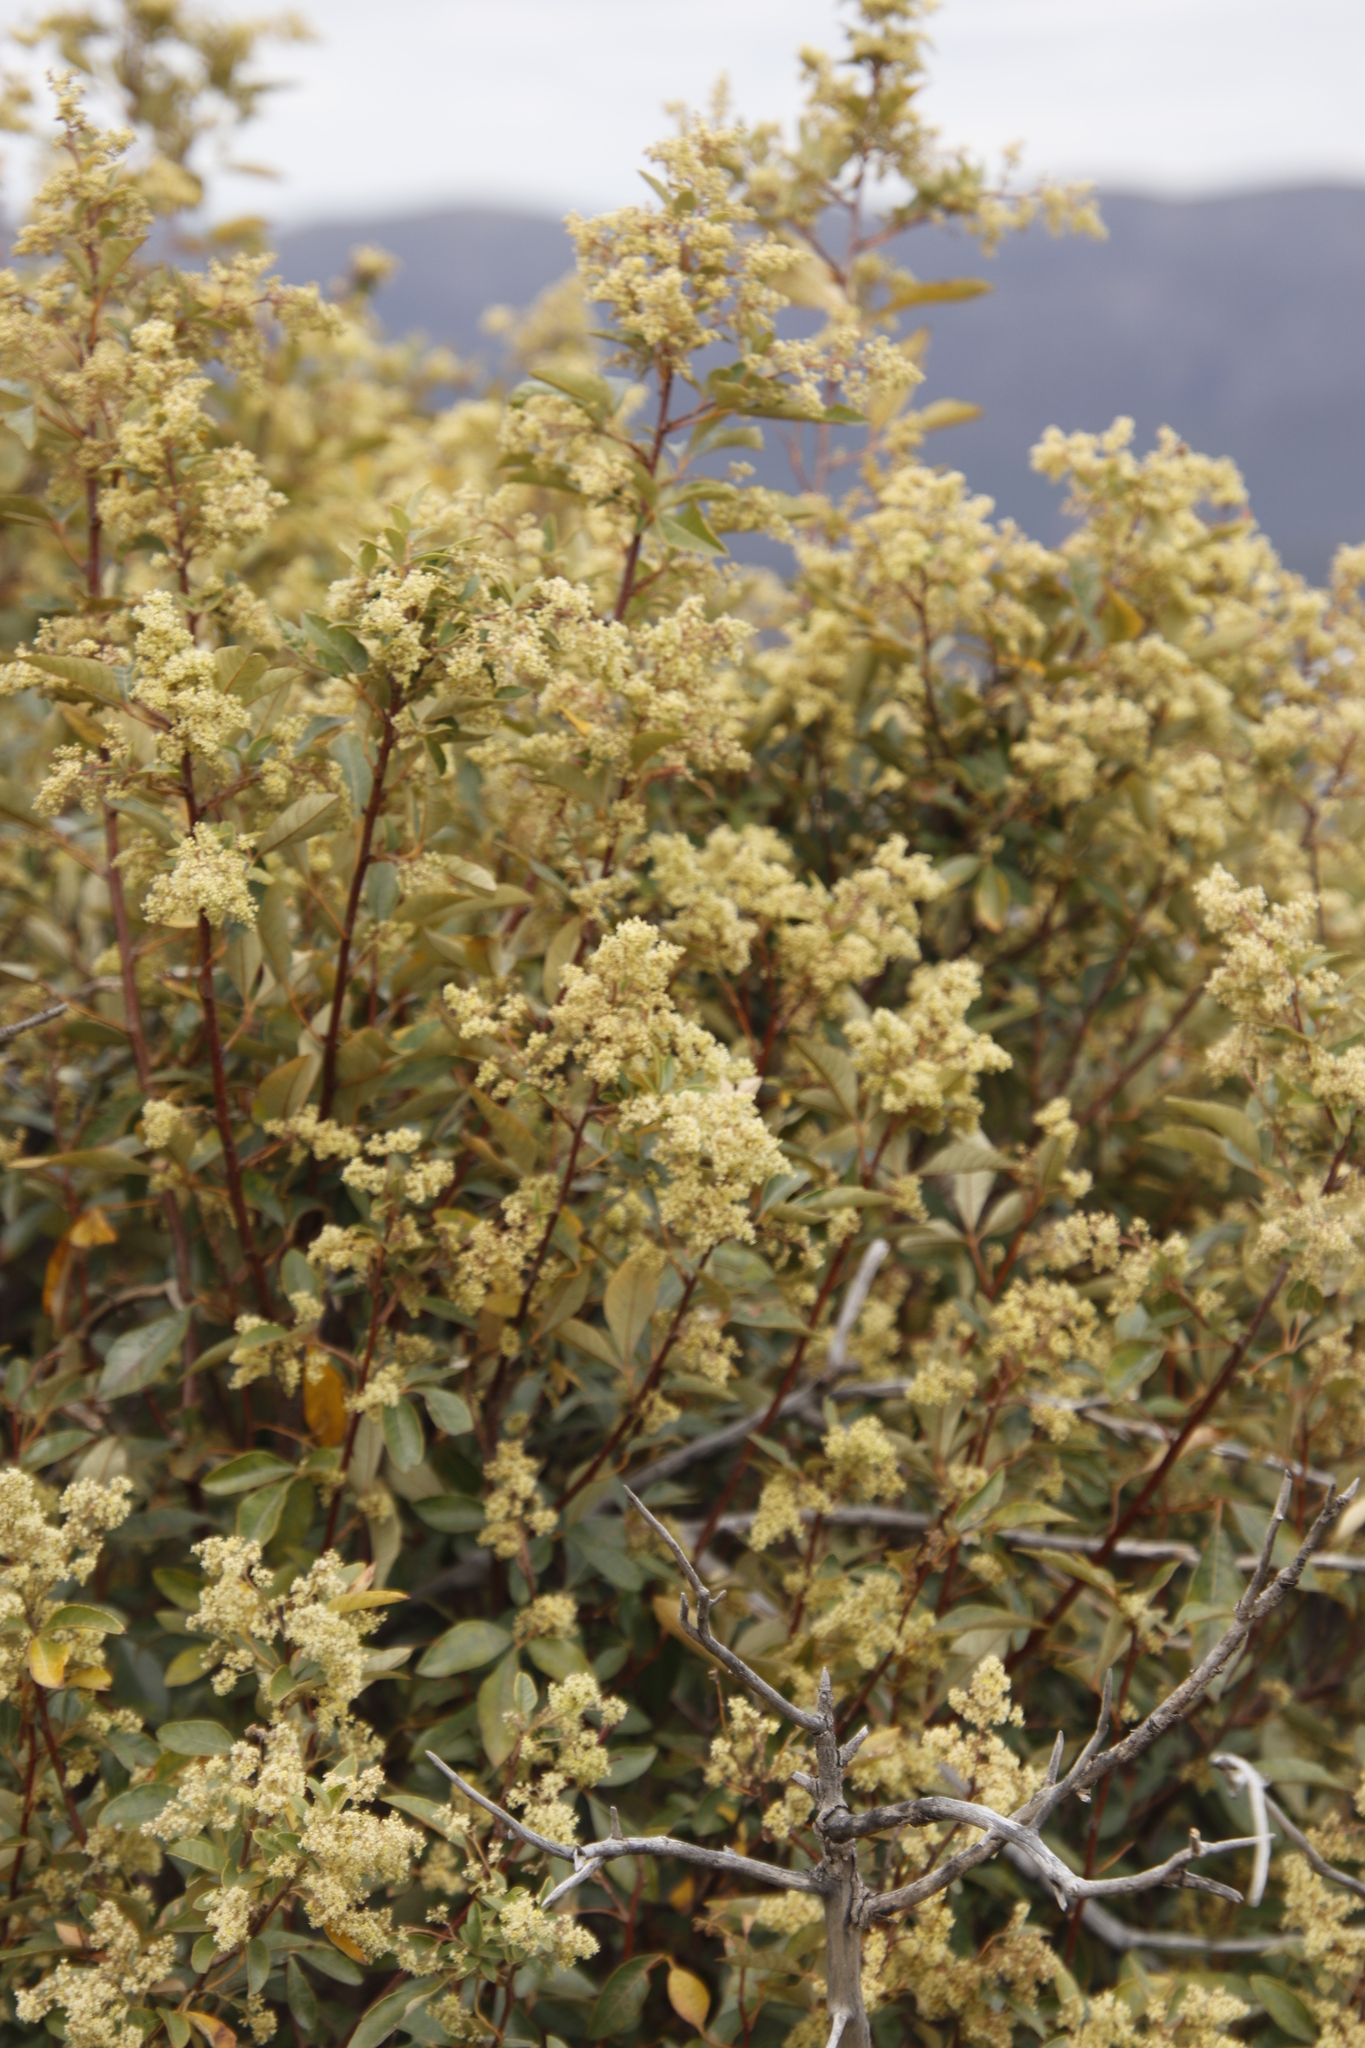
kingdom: Plantae
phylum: Tracheophyta
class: Magnoliopsida
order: Sapindales
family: Anacardiaceae
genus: Searsia
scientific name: Searsia tomentosa
